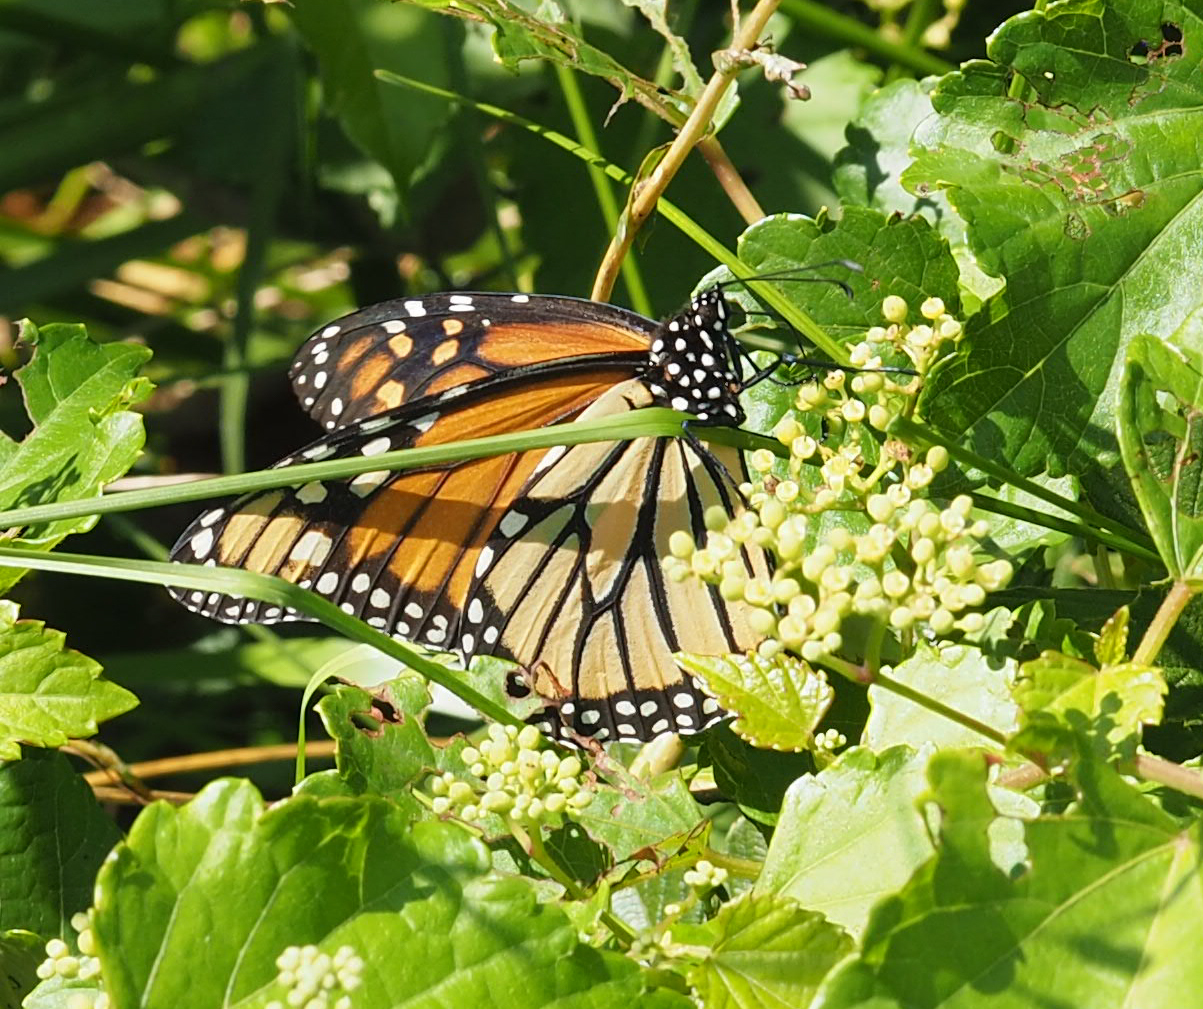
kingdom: Animalia
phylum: Arthropoda
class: Insecta
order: Lepidoptera
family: Nymphalidae
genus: Danaus
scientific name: Danaus plexippus
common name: Monarch
